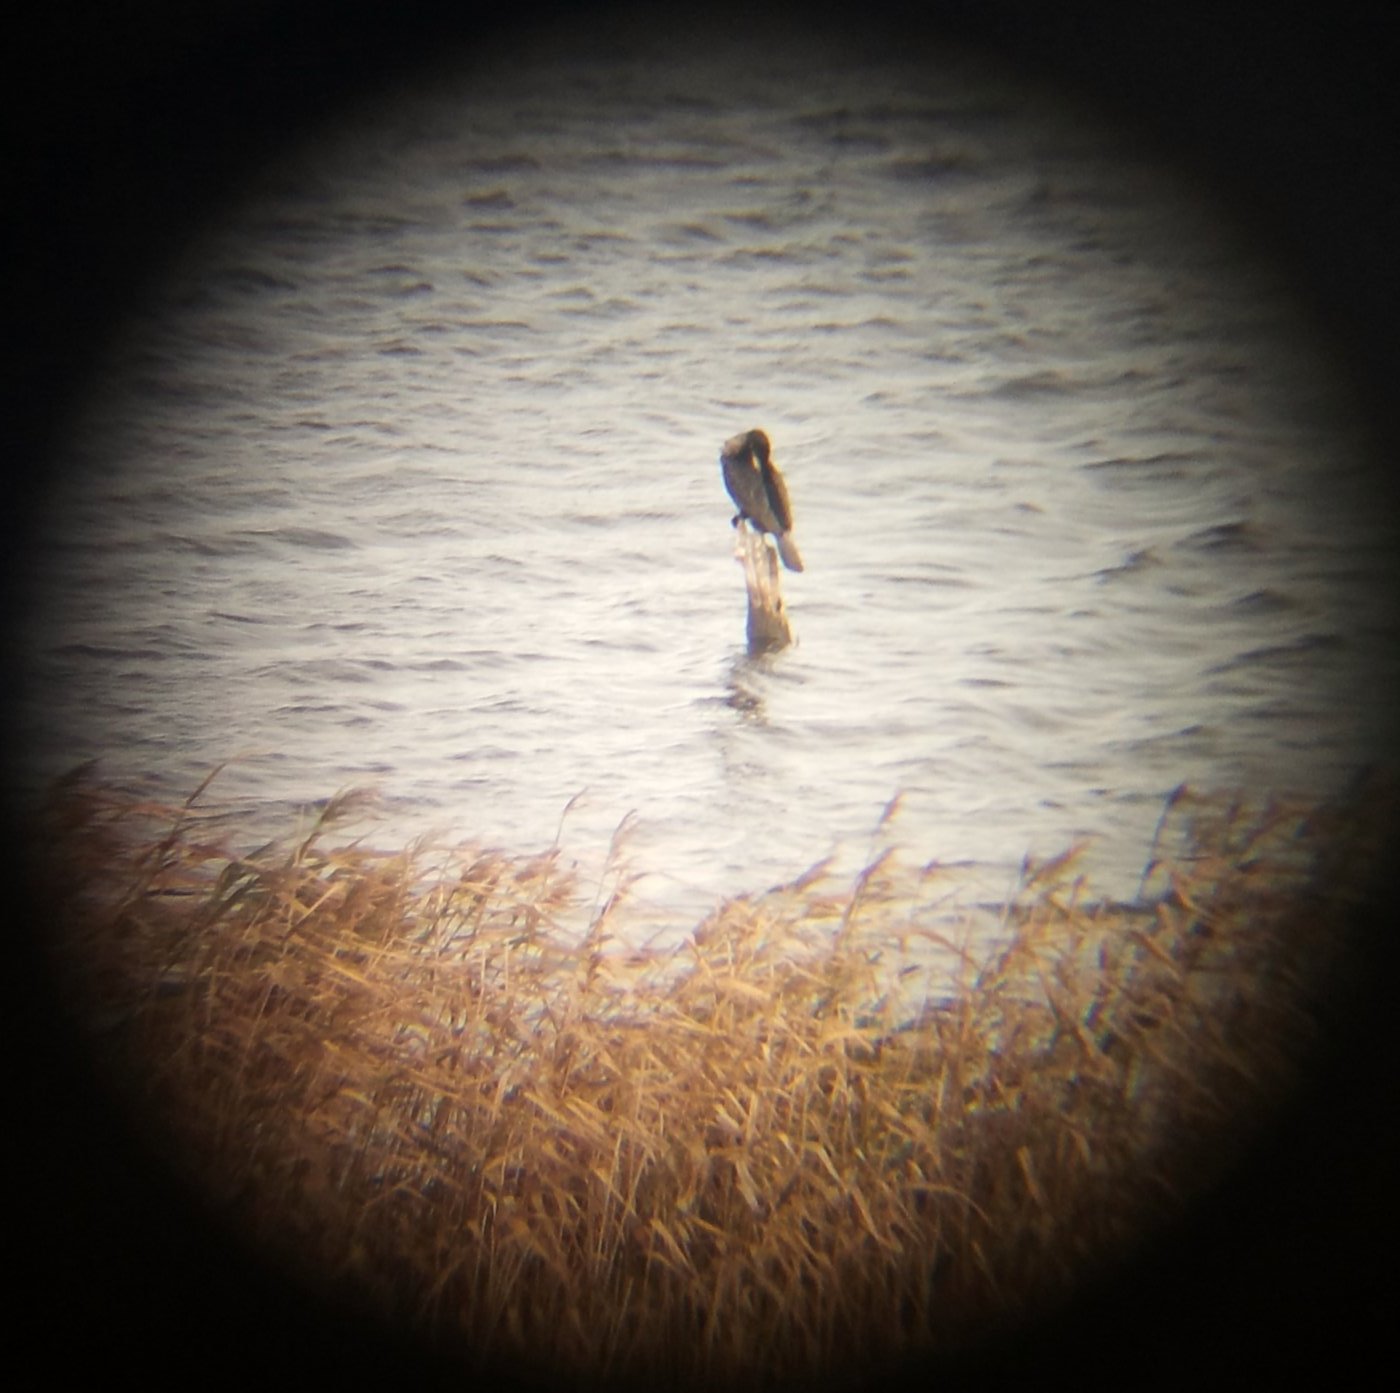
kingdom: Animalia
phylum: Chordata
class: Aves
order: Suliformes
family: Phalacrocoracidae
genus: Phalacrocorax
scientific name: Phalacrocorax carbo
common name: Great cormorant
